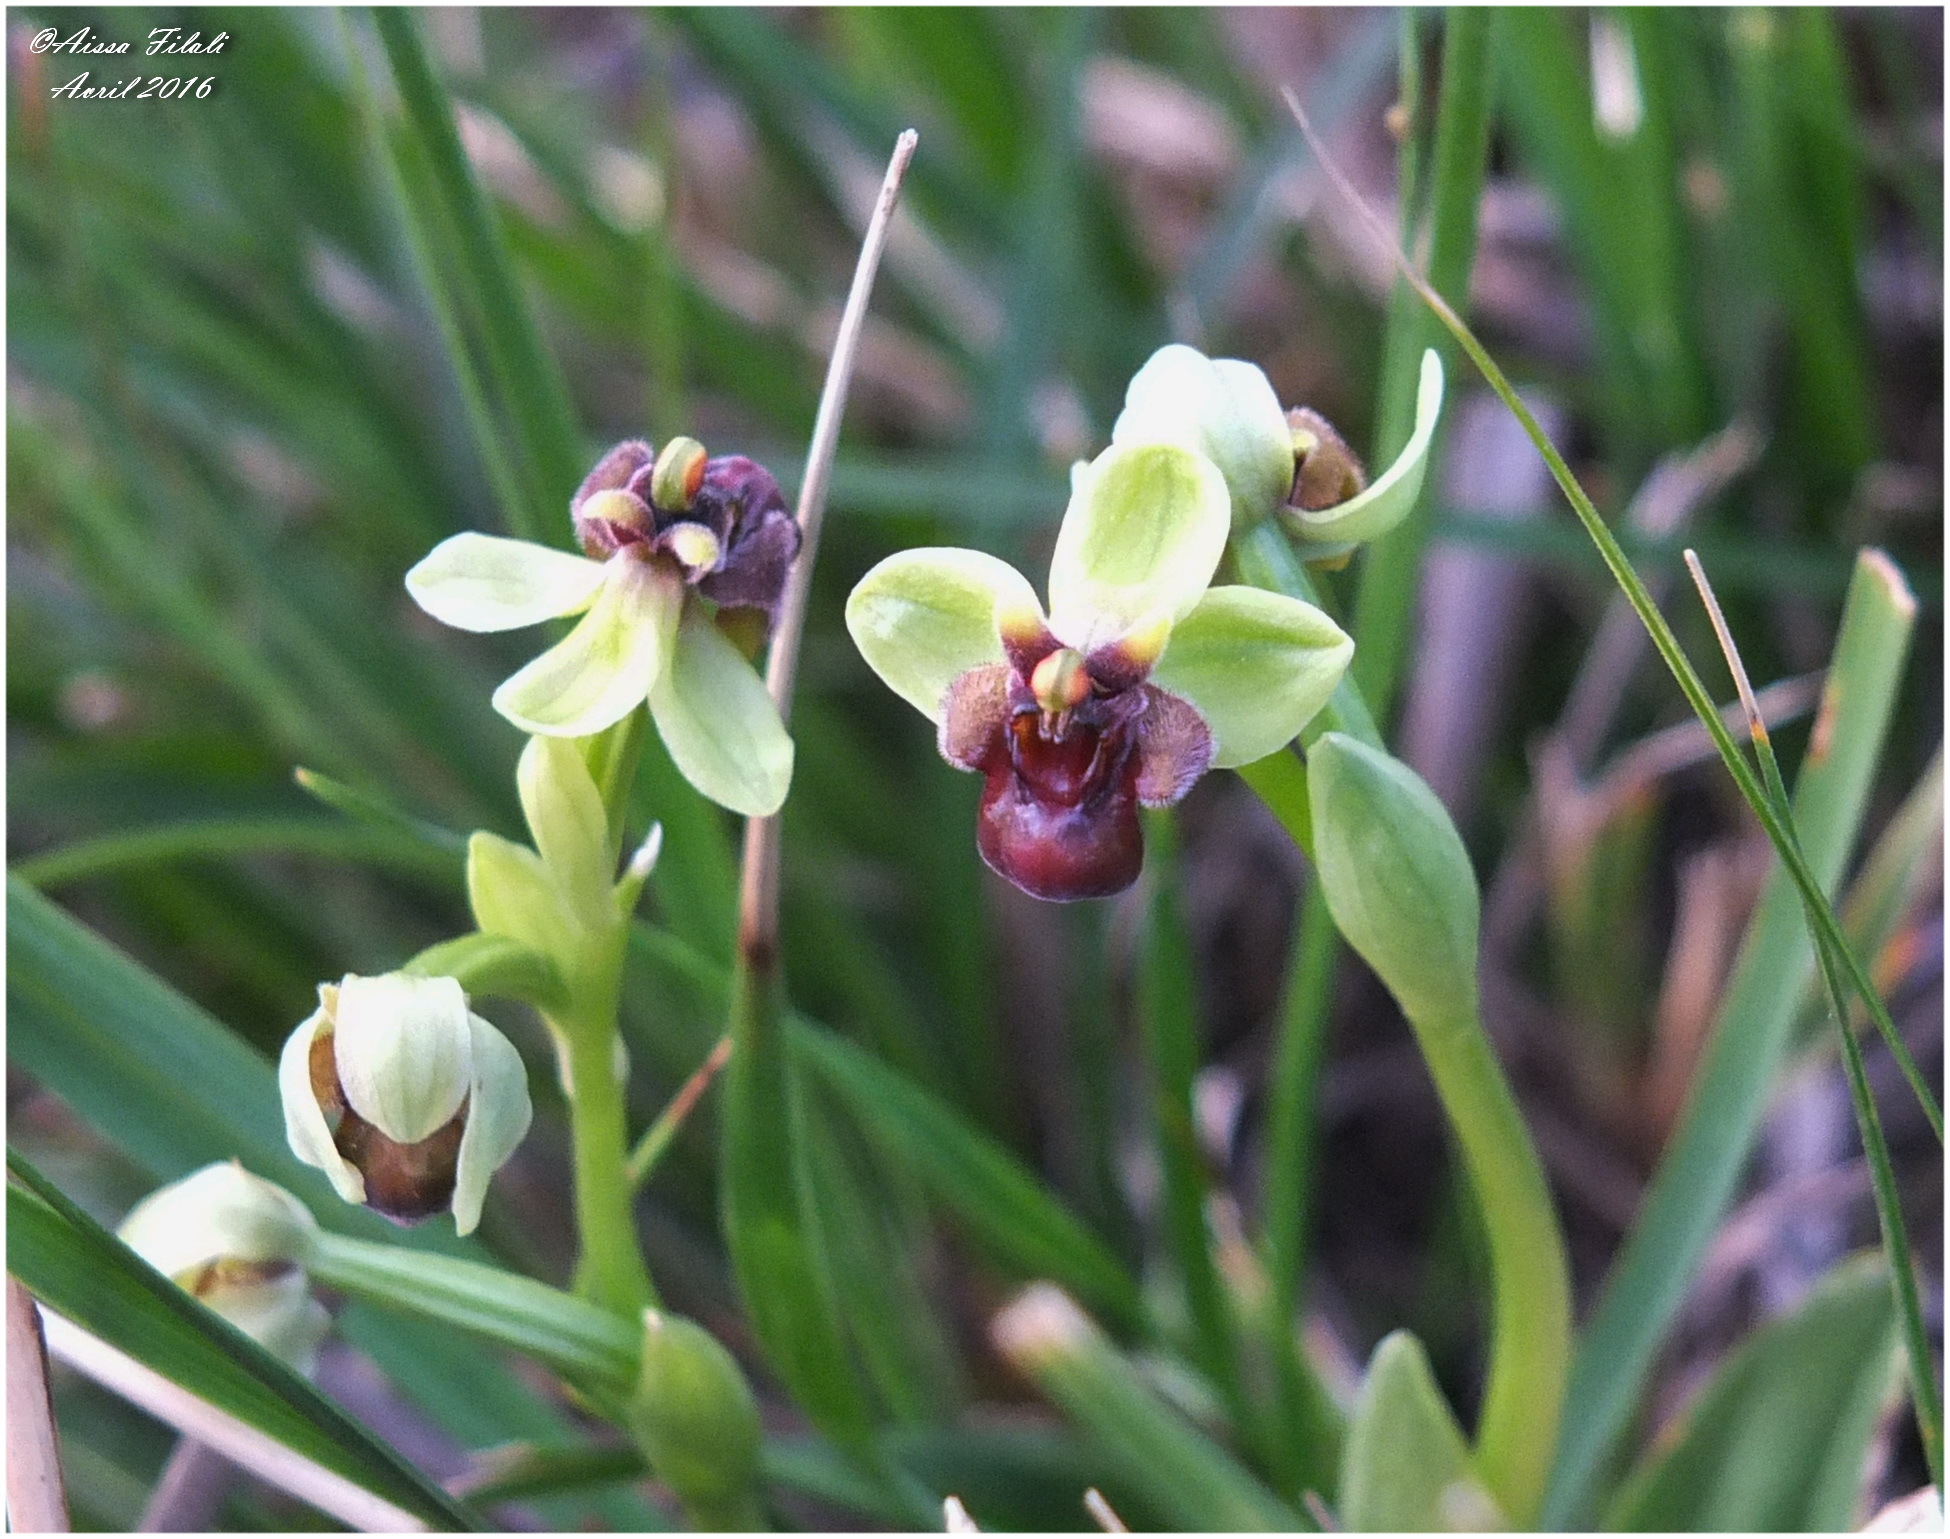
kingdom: Plantae
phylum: Tracheophyta
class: Liliopsida
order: Asparagales
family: Orchidaceae
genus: Ophrys
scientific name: Ophrys bombyliflora
